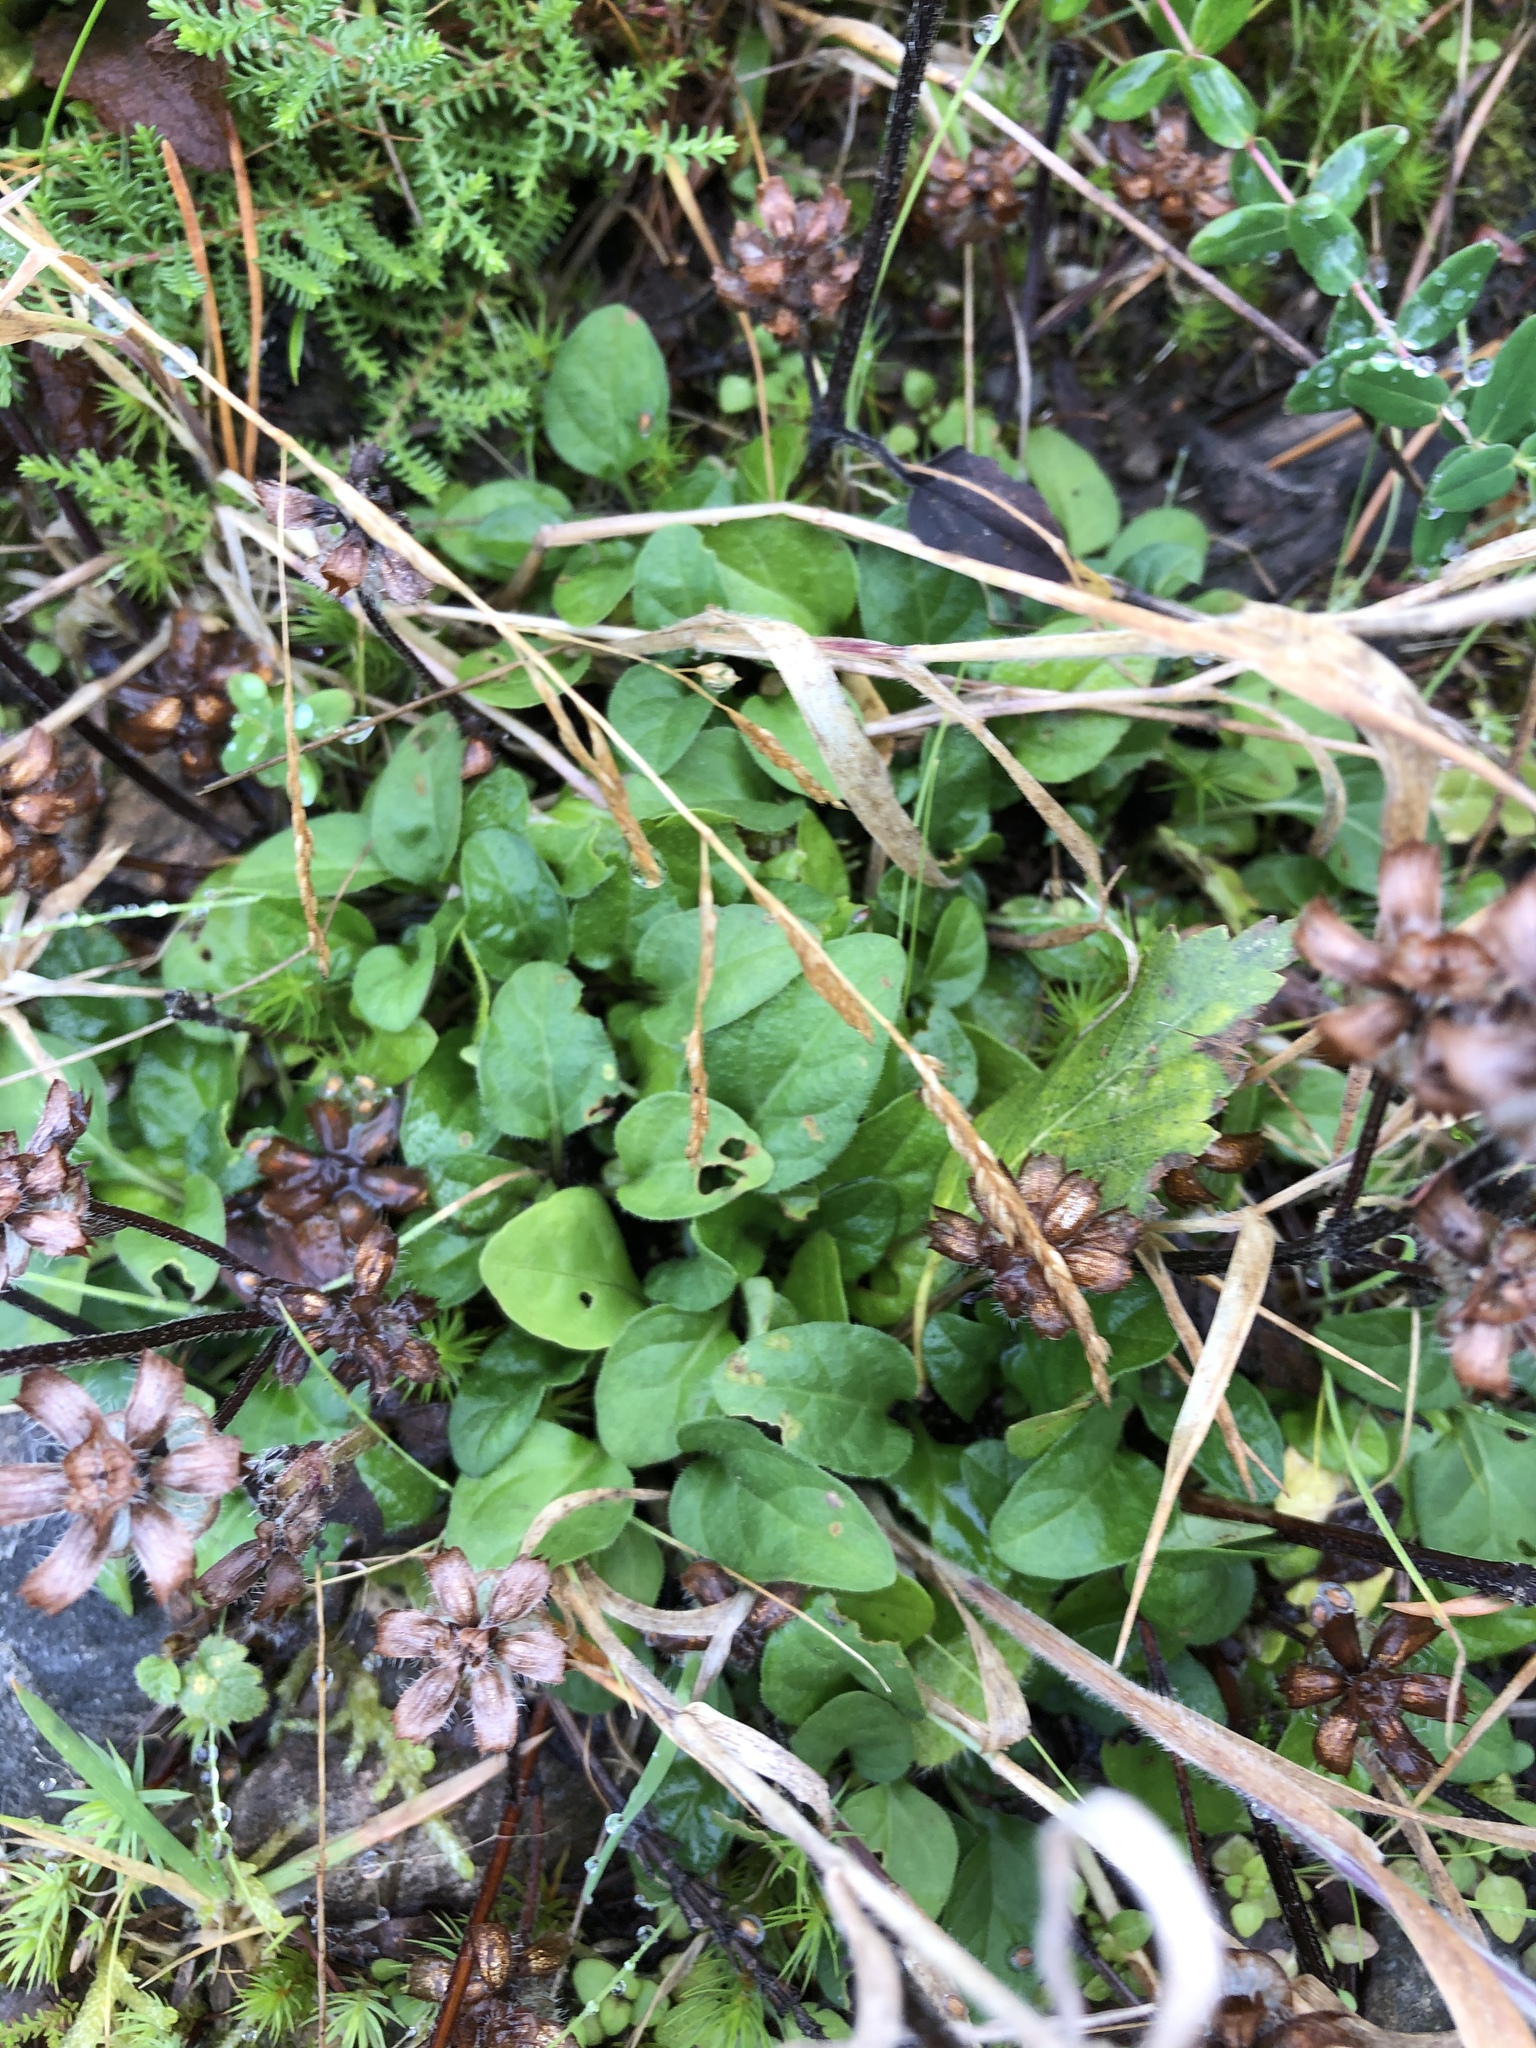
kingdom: Plantae
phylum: Tracheophyta
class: Magnoliopsida
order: Lamiales
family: Lamiaceae
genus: Prunella
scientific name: Prunella vulgaris
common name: Heal-all
